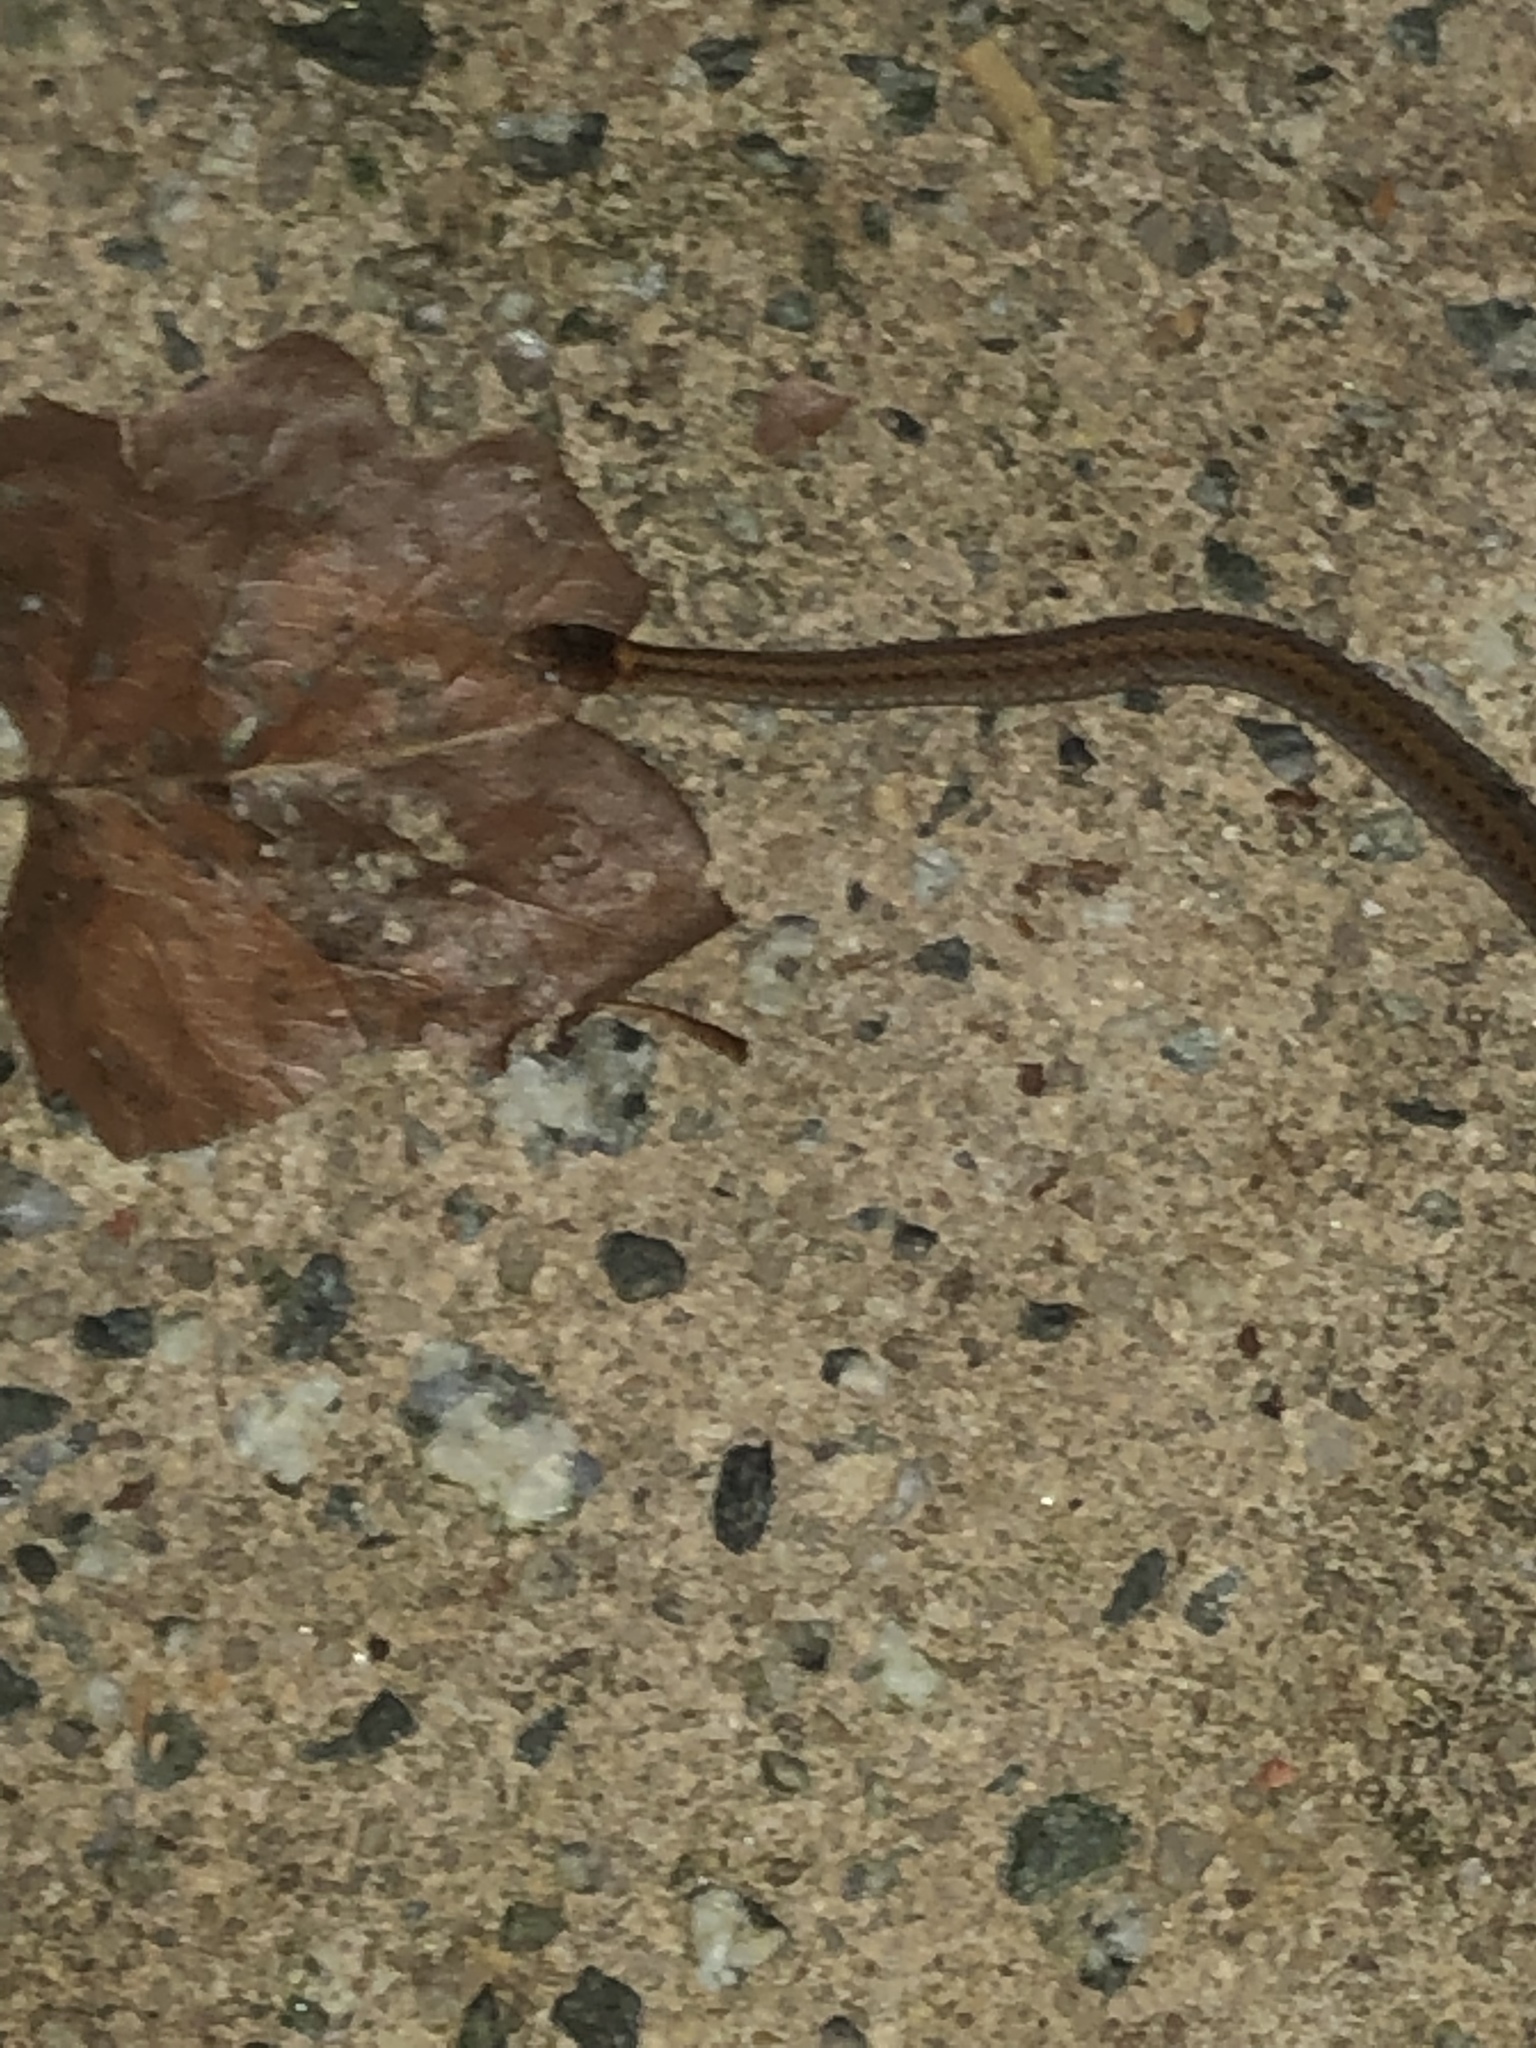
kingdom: Animalia
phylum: Chordata
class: Squamata
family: Colubridae
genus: Storeria
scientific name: Storeria occipitomaculata
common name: Redbelly snake
